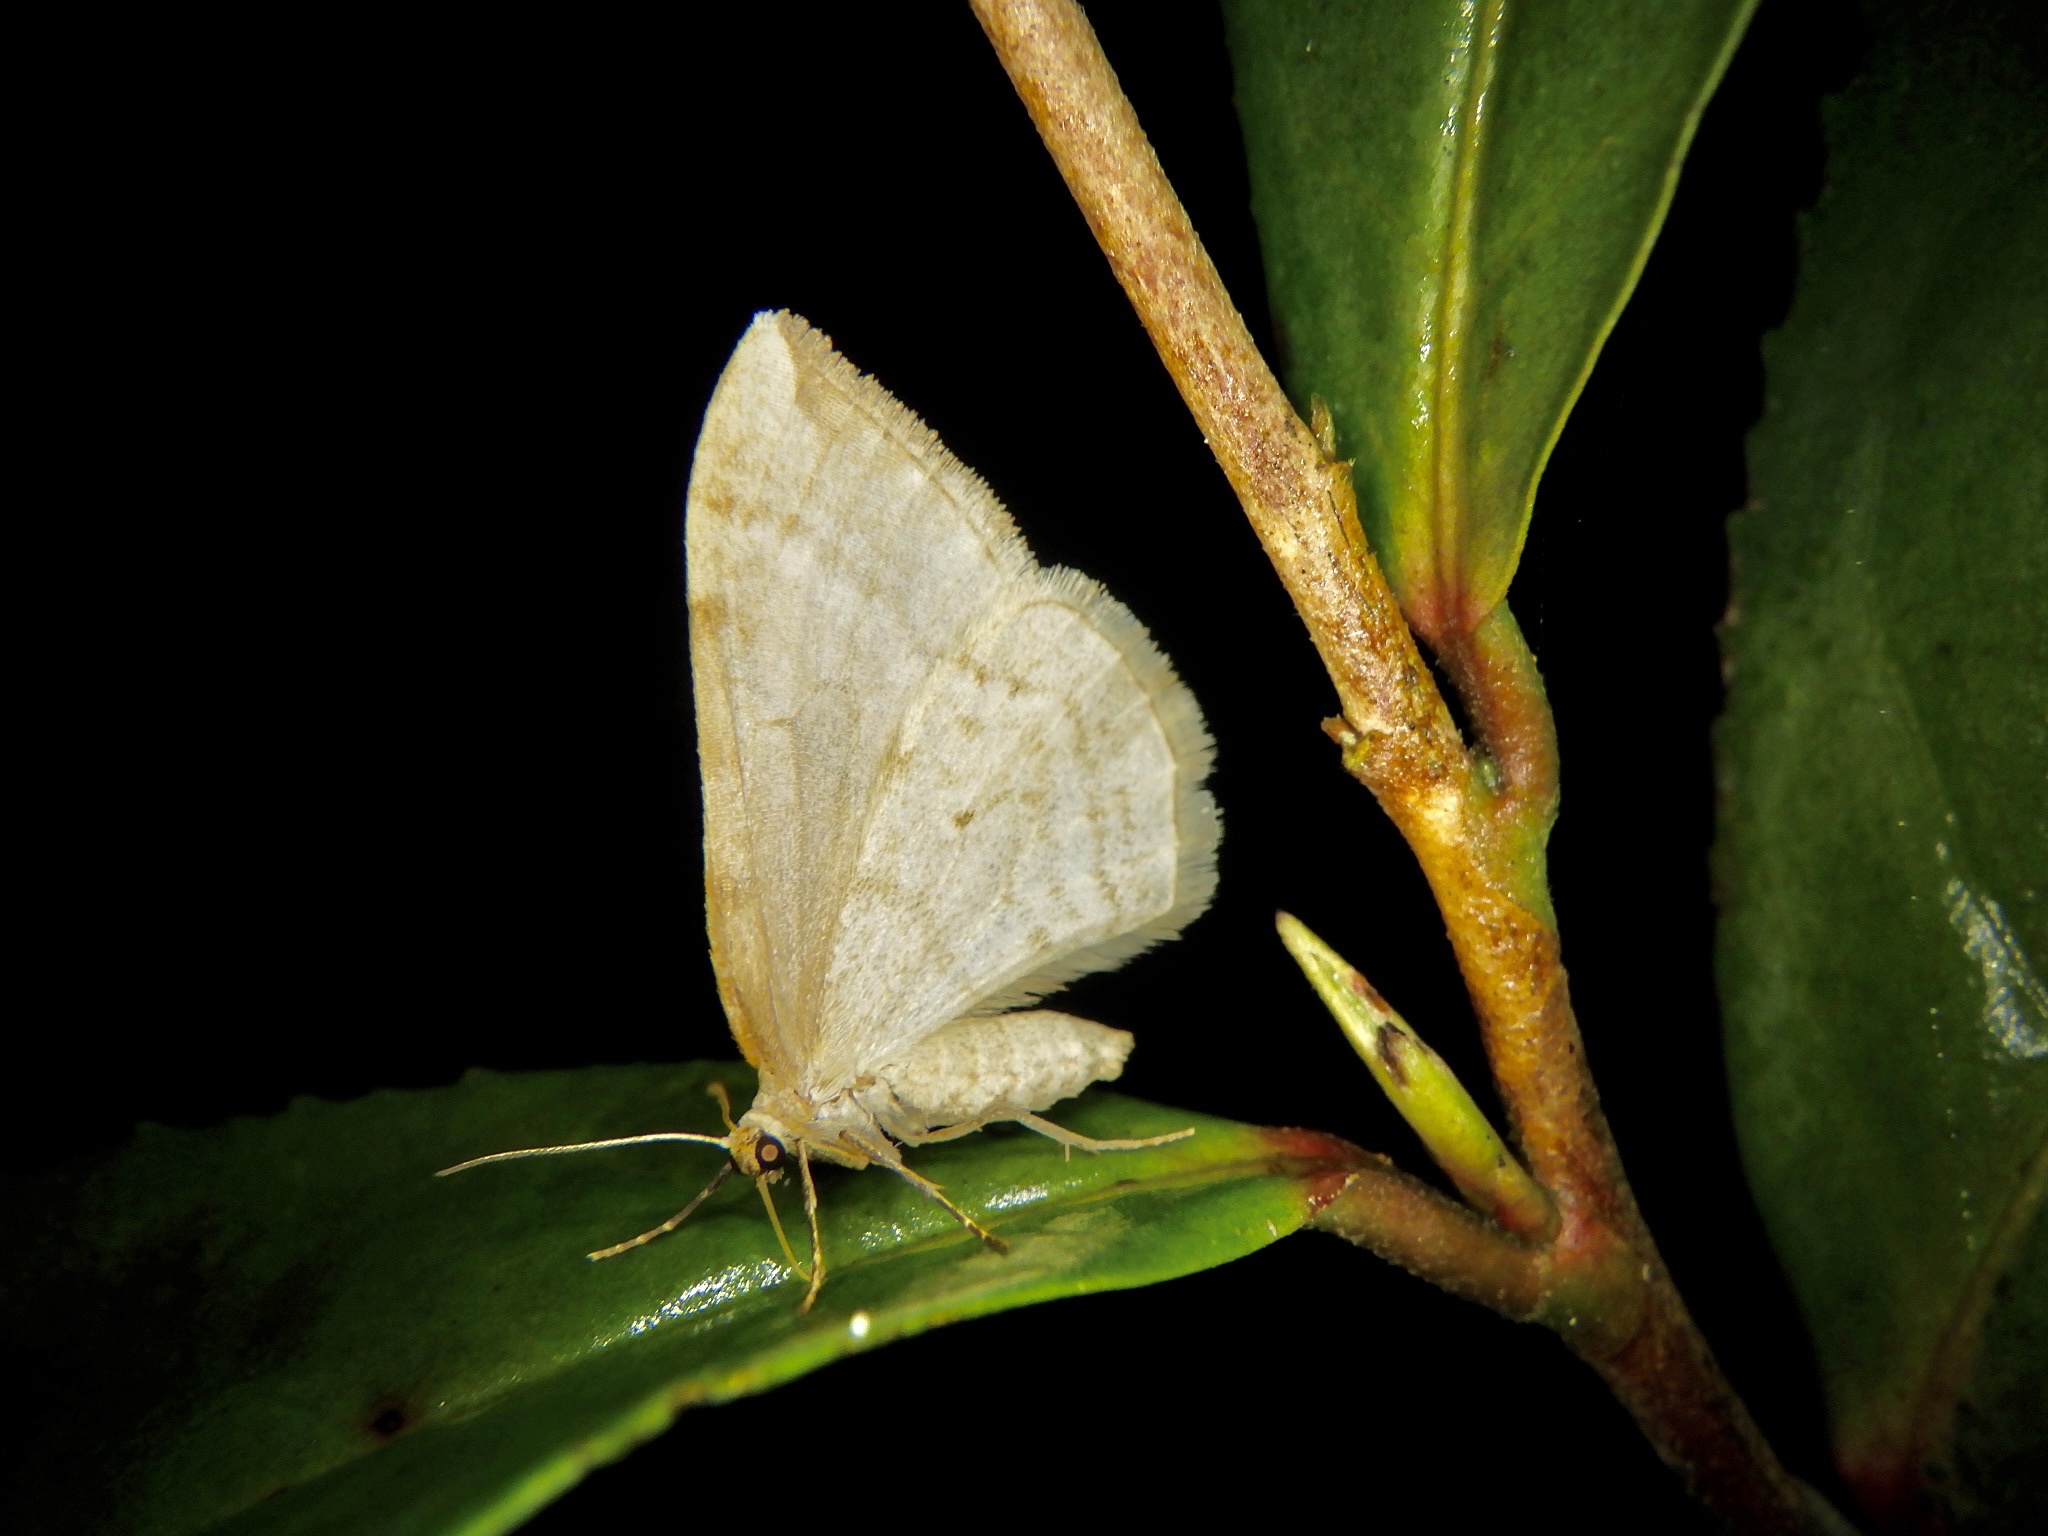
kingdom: Animalia
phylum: Arthropoda
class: Insecta
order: Lepidoptera
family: Geometridae
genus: Nothoporinia
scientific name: Nothoporinia mediolineata
